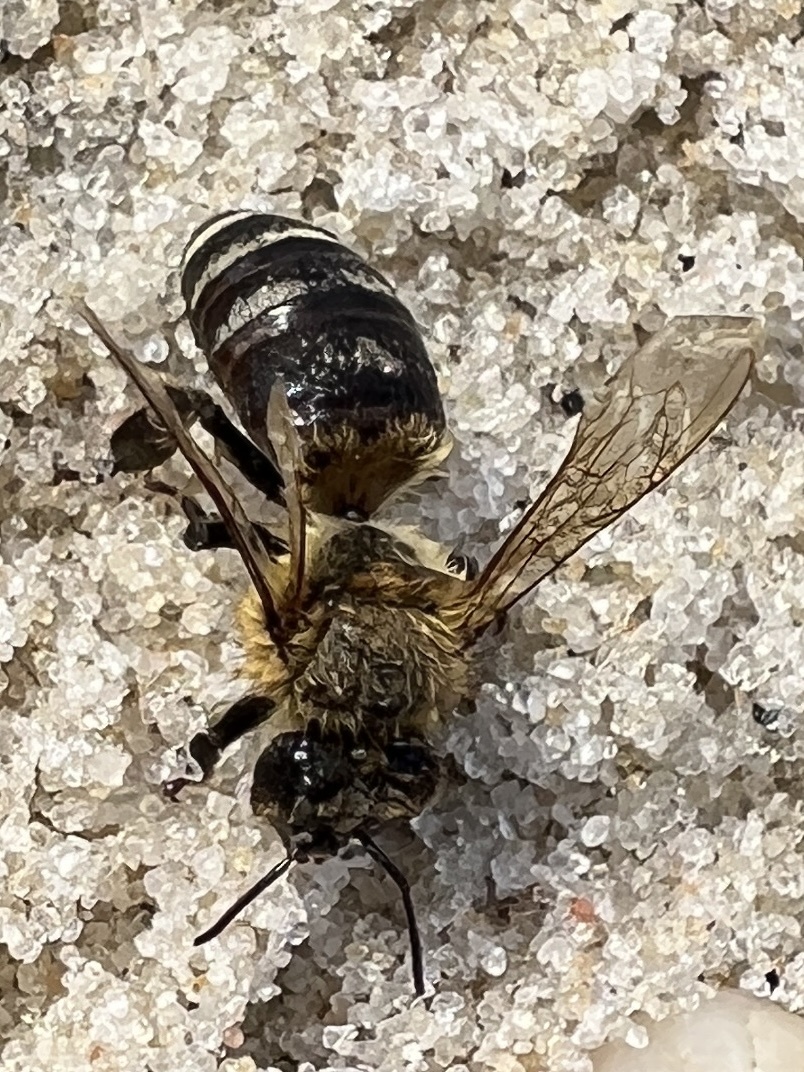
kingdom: Animalia
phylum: Arthropoda
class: Insecta
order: Hymenoptera
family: Apidae
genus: Apis
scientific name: Apis mellifera
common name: Honey bee
